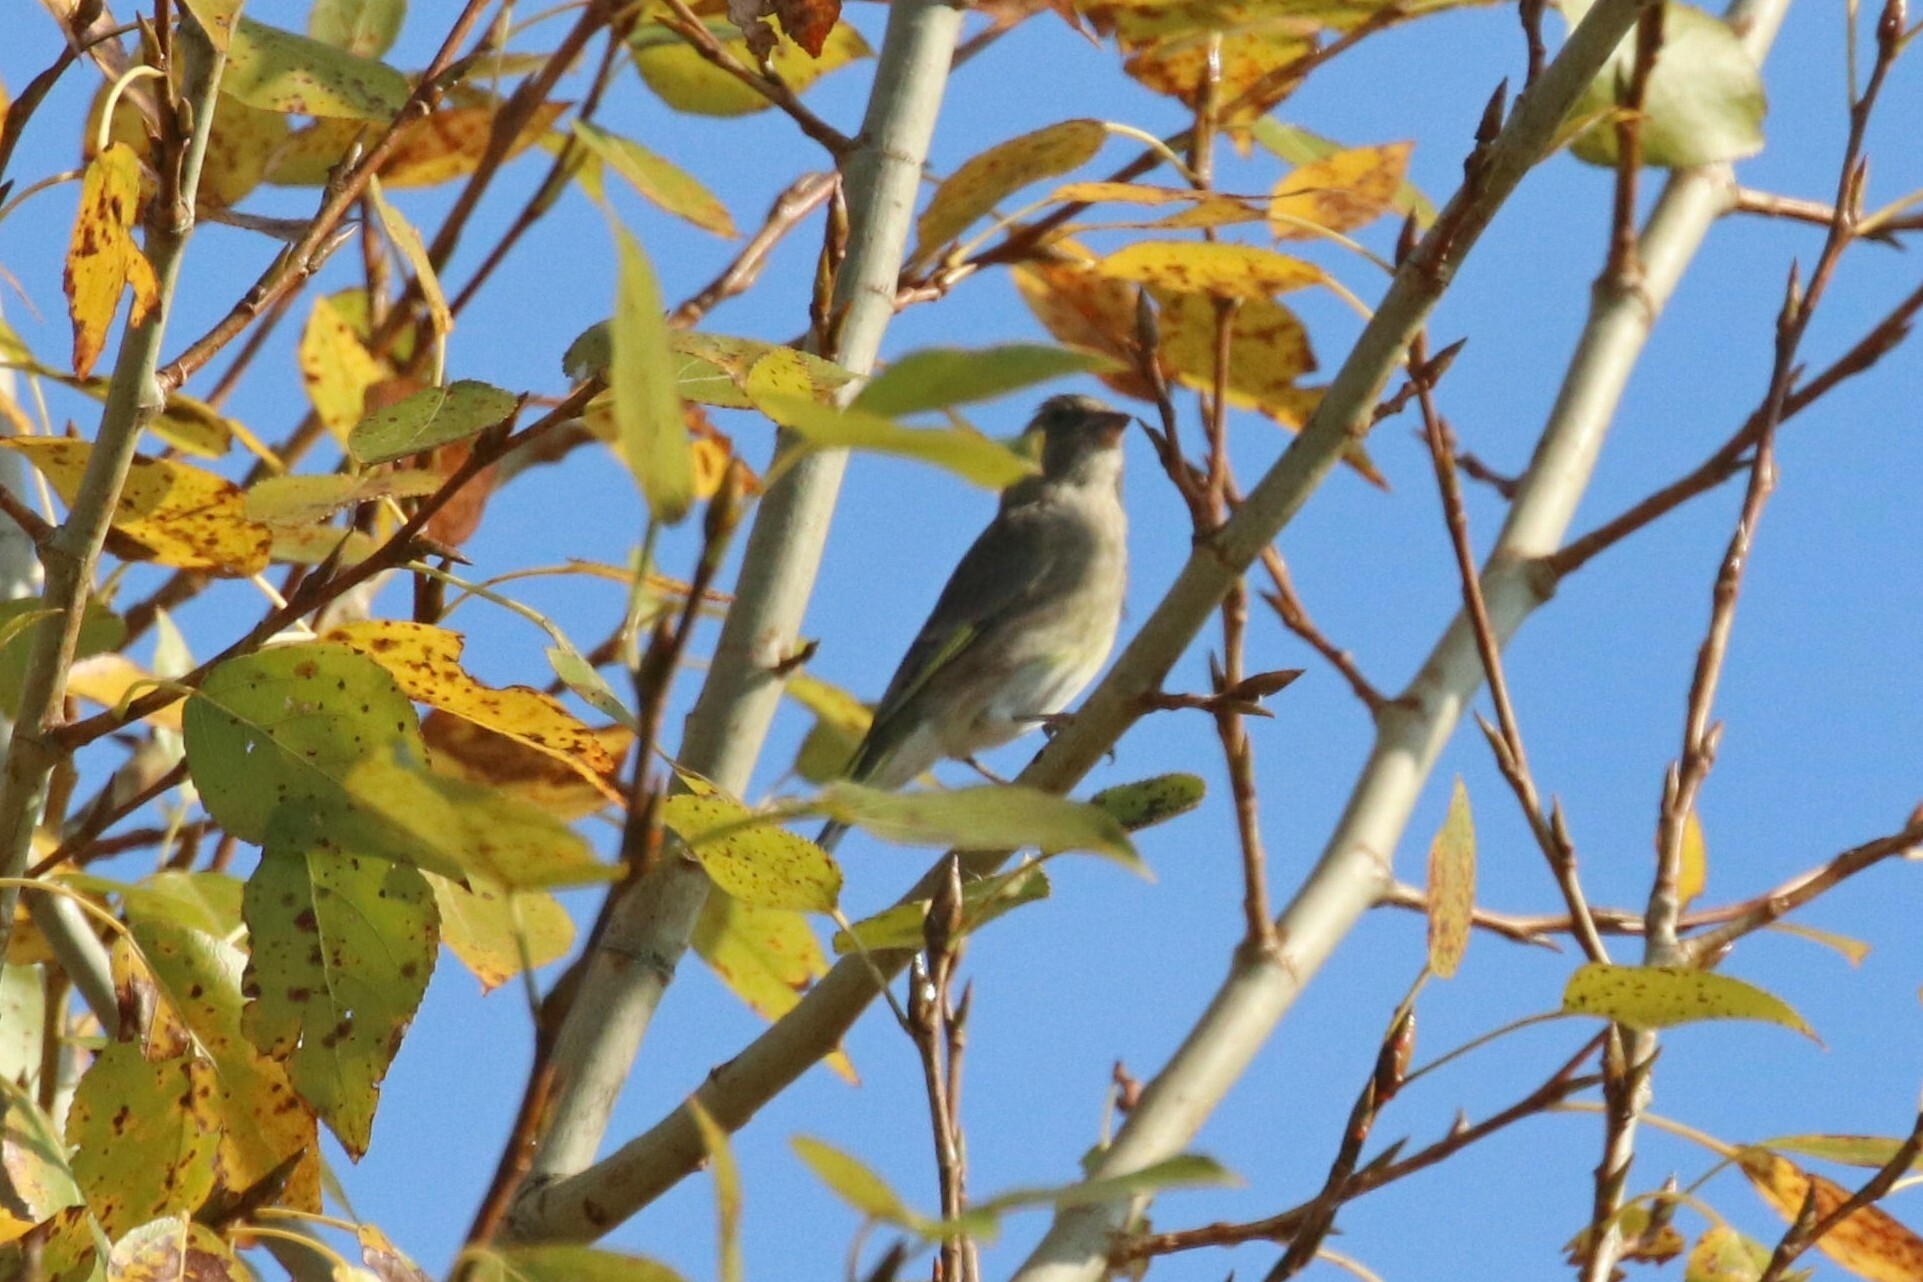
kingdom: Plantae
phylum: Tracheophyta
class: Liliopsida
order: Poales
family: Poaceae
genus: Chloris
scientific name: Chloris chloris
